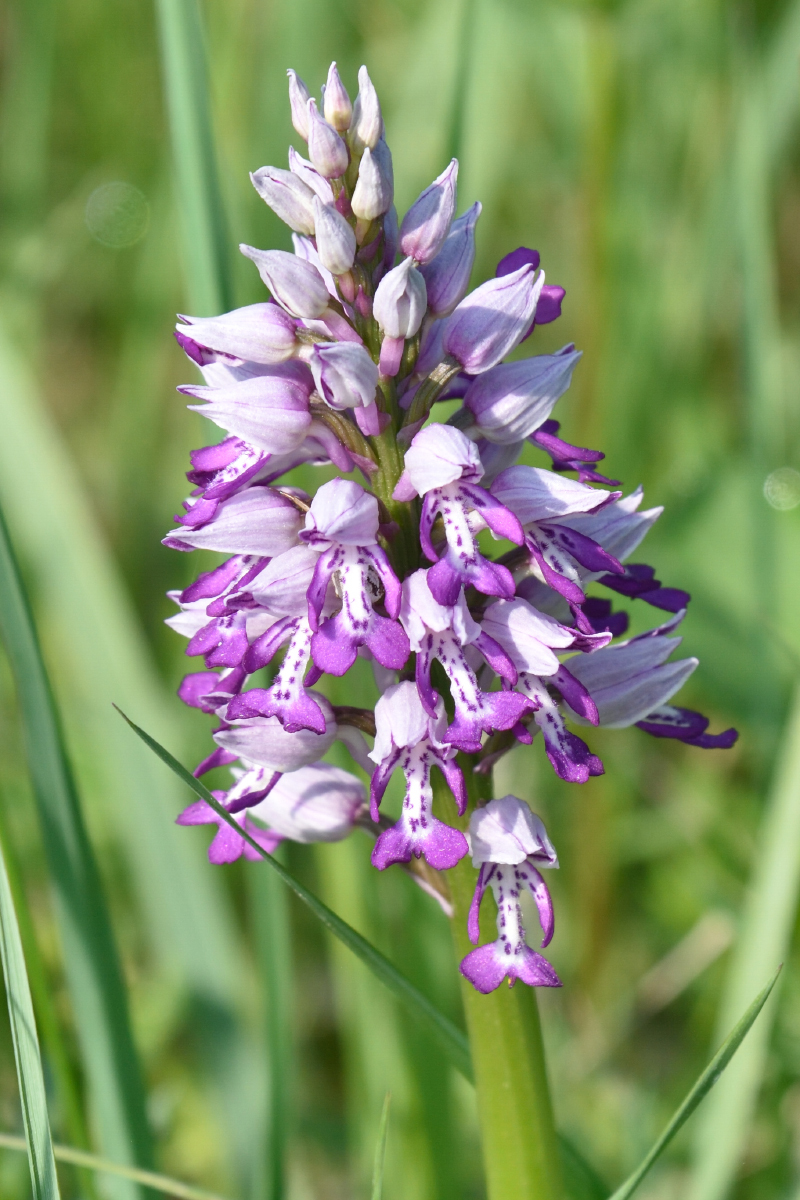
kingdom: Plantae
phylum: Tracheophyta
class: Liliopsida
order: Asparagales
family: Orchidaceae
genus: Orchis
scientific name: Orchis militaris
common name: Military orchid
